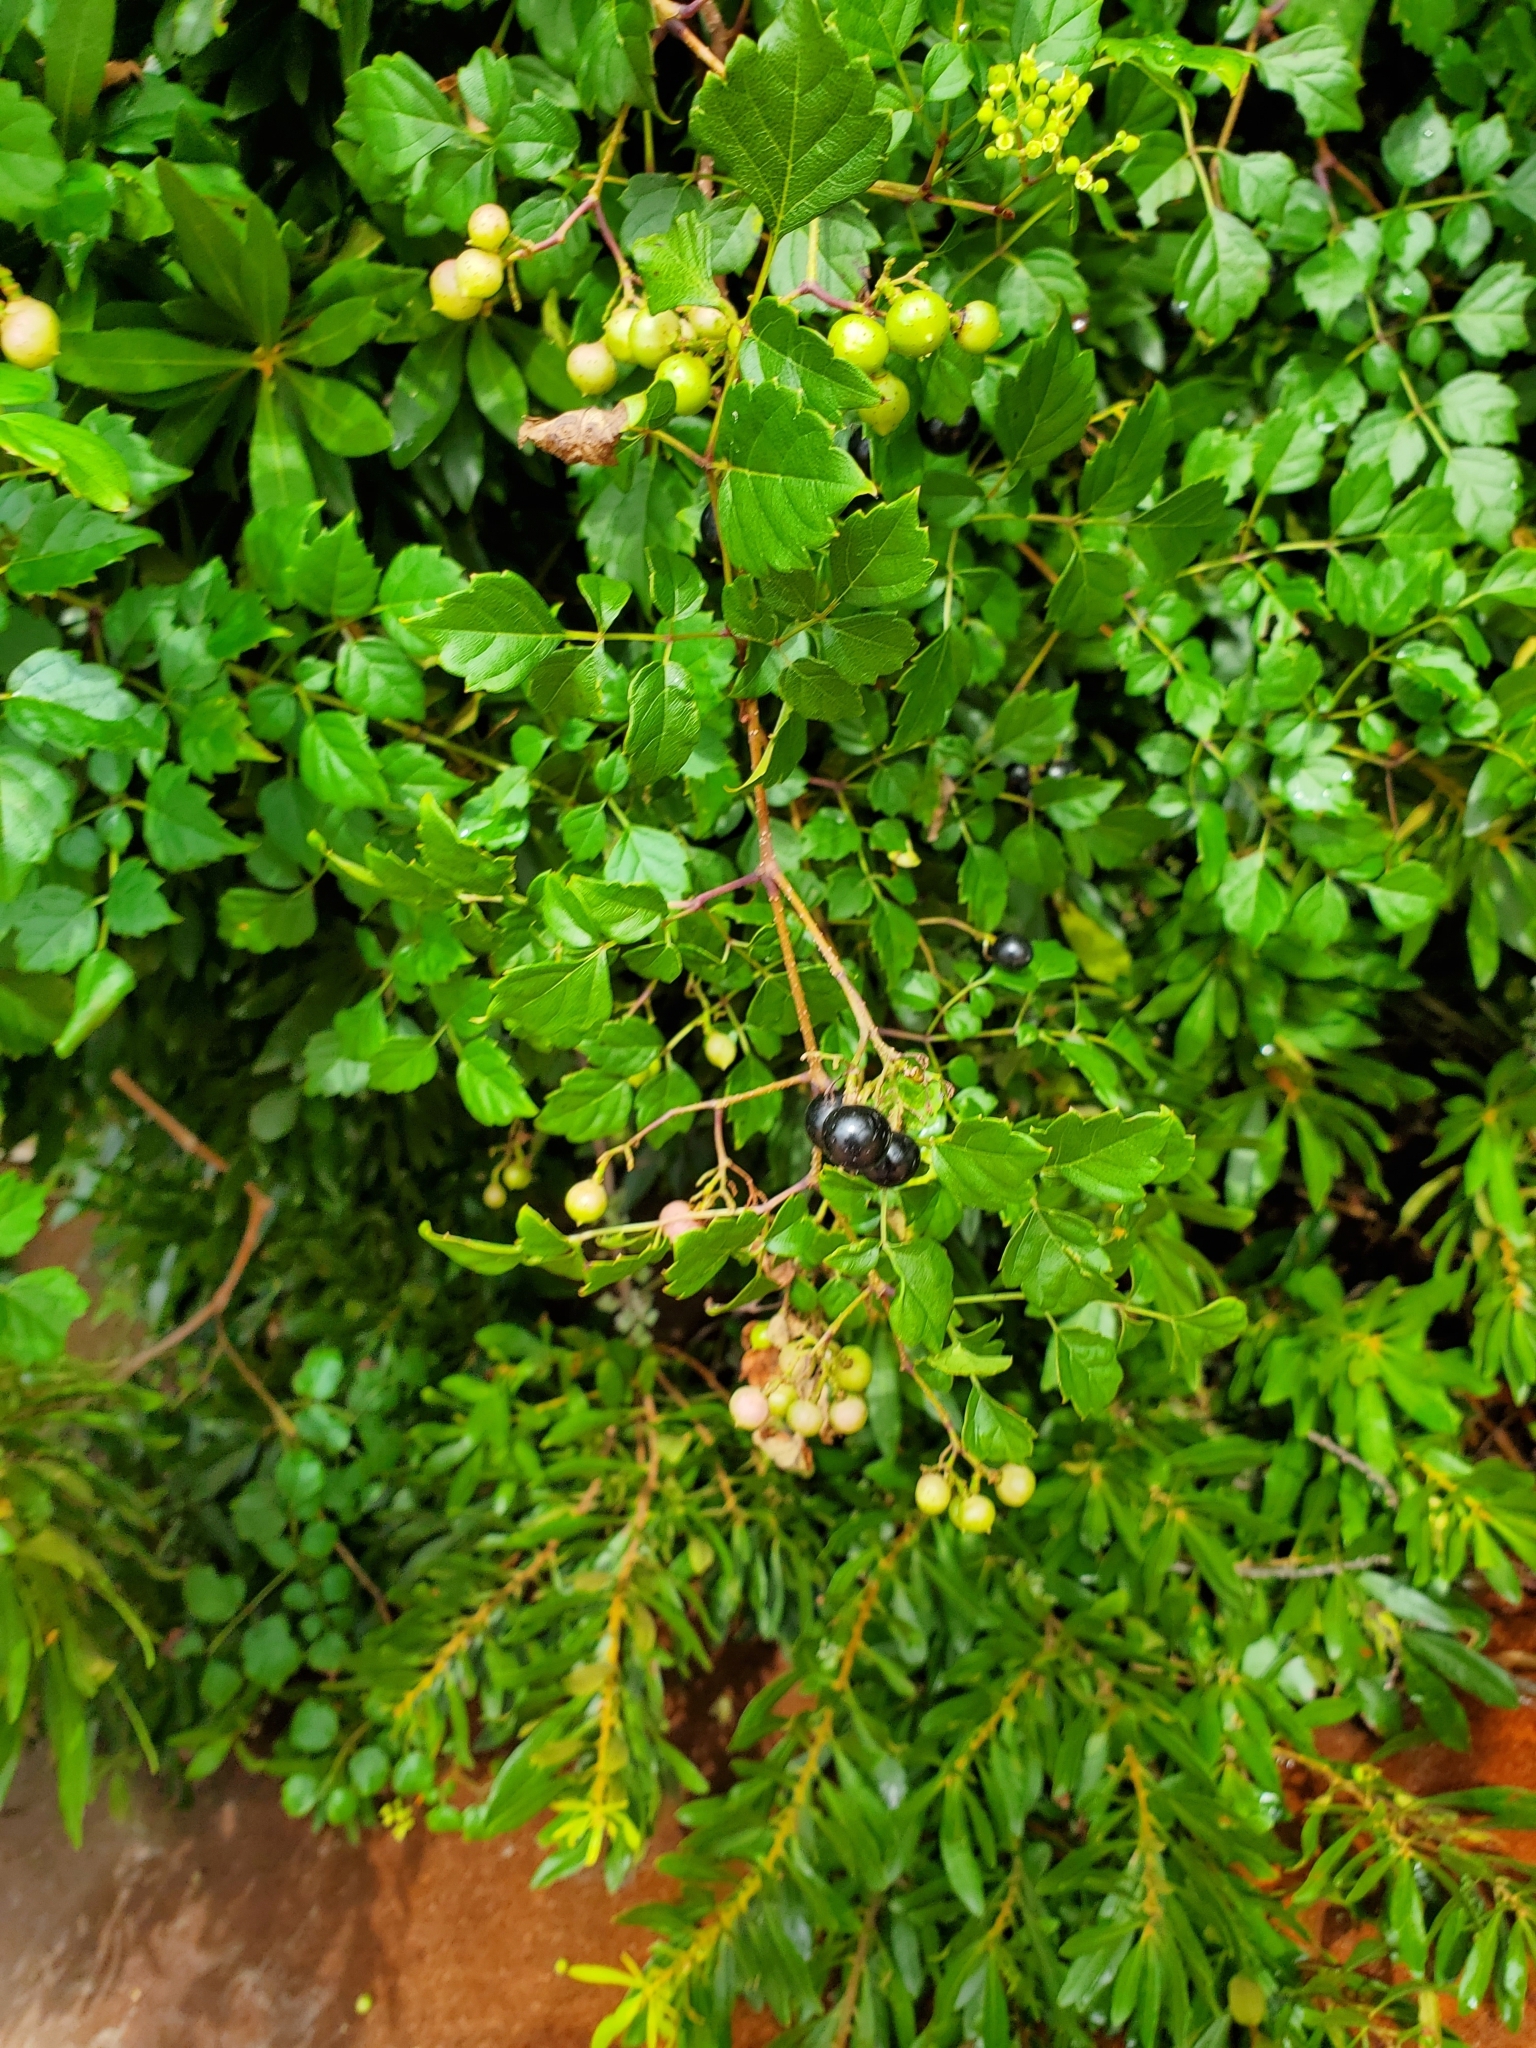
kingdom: Plantae
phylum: Tracheophyta
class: Magnoliopsida
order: Vitales
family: Vitaceae
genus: Nekemias
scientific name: Nekemias arborea
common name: Peppervine
